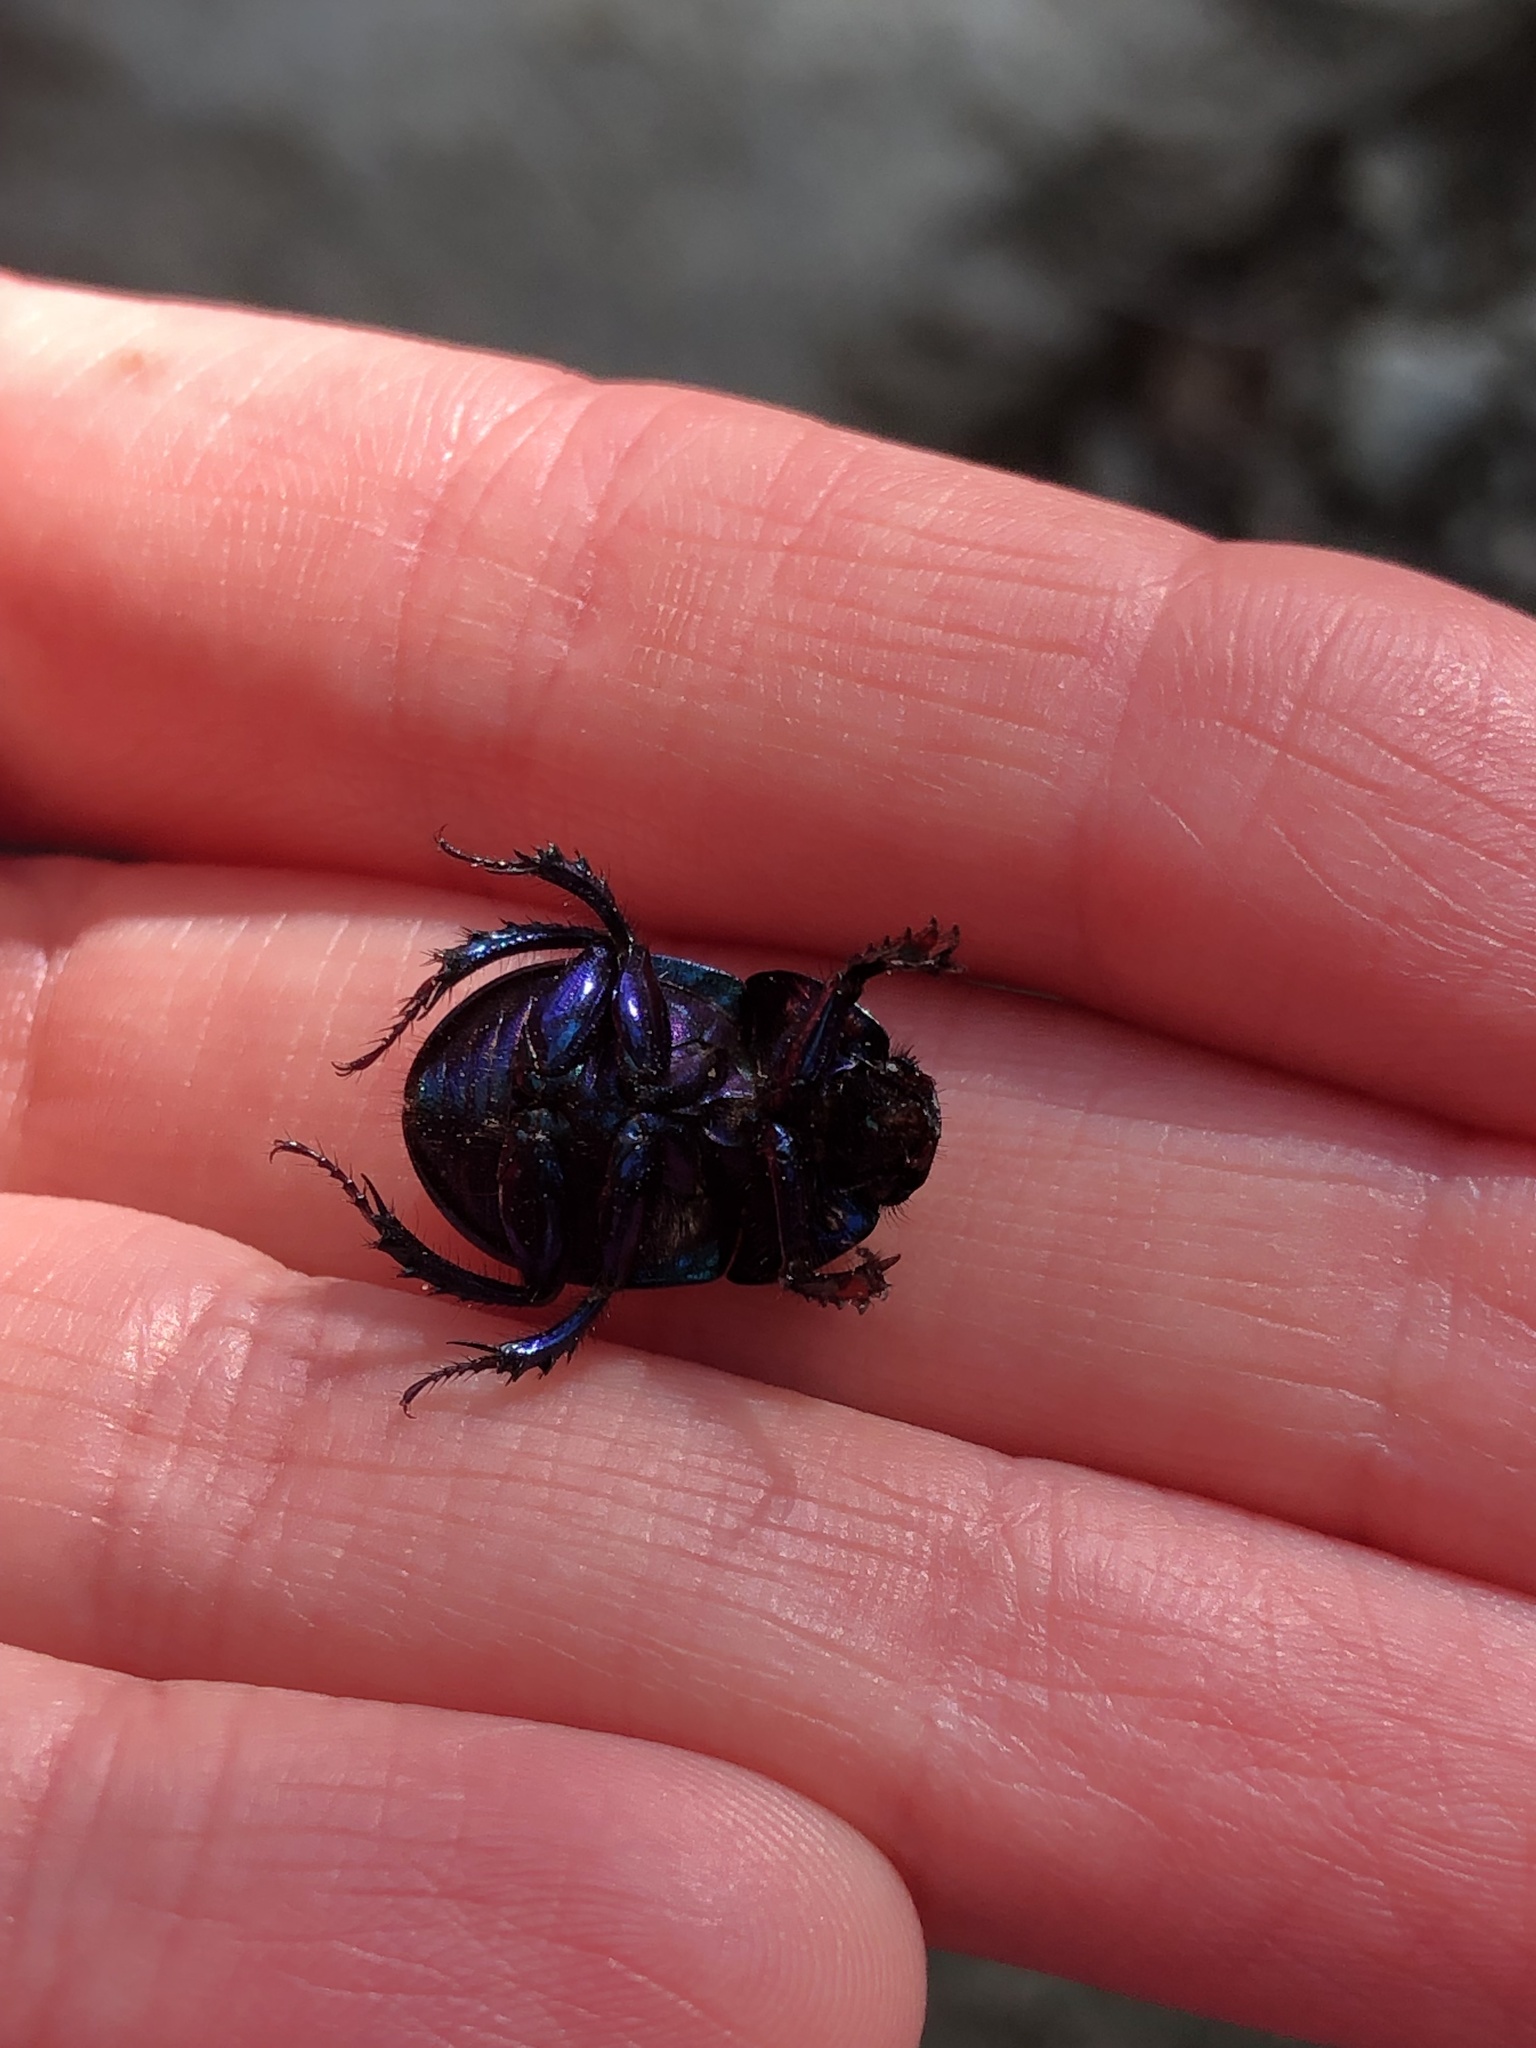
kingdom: Animalia
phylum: Arthropoda
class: Insecta
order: Coleoptera
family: Geotrupidae
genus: Anoplotrupes
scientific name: Anoplotrupes stercorosus
